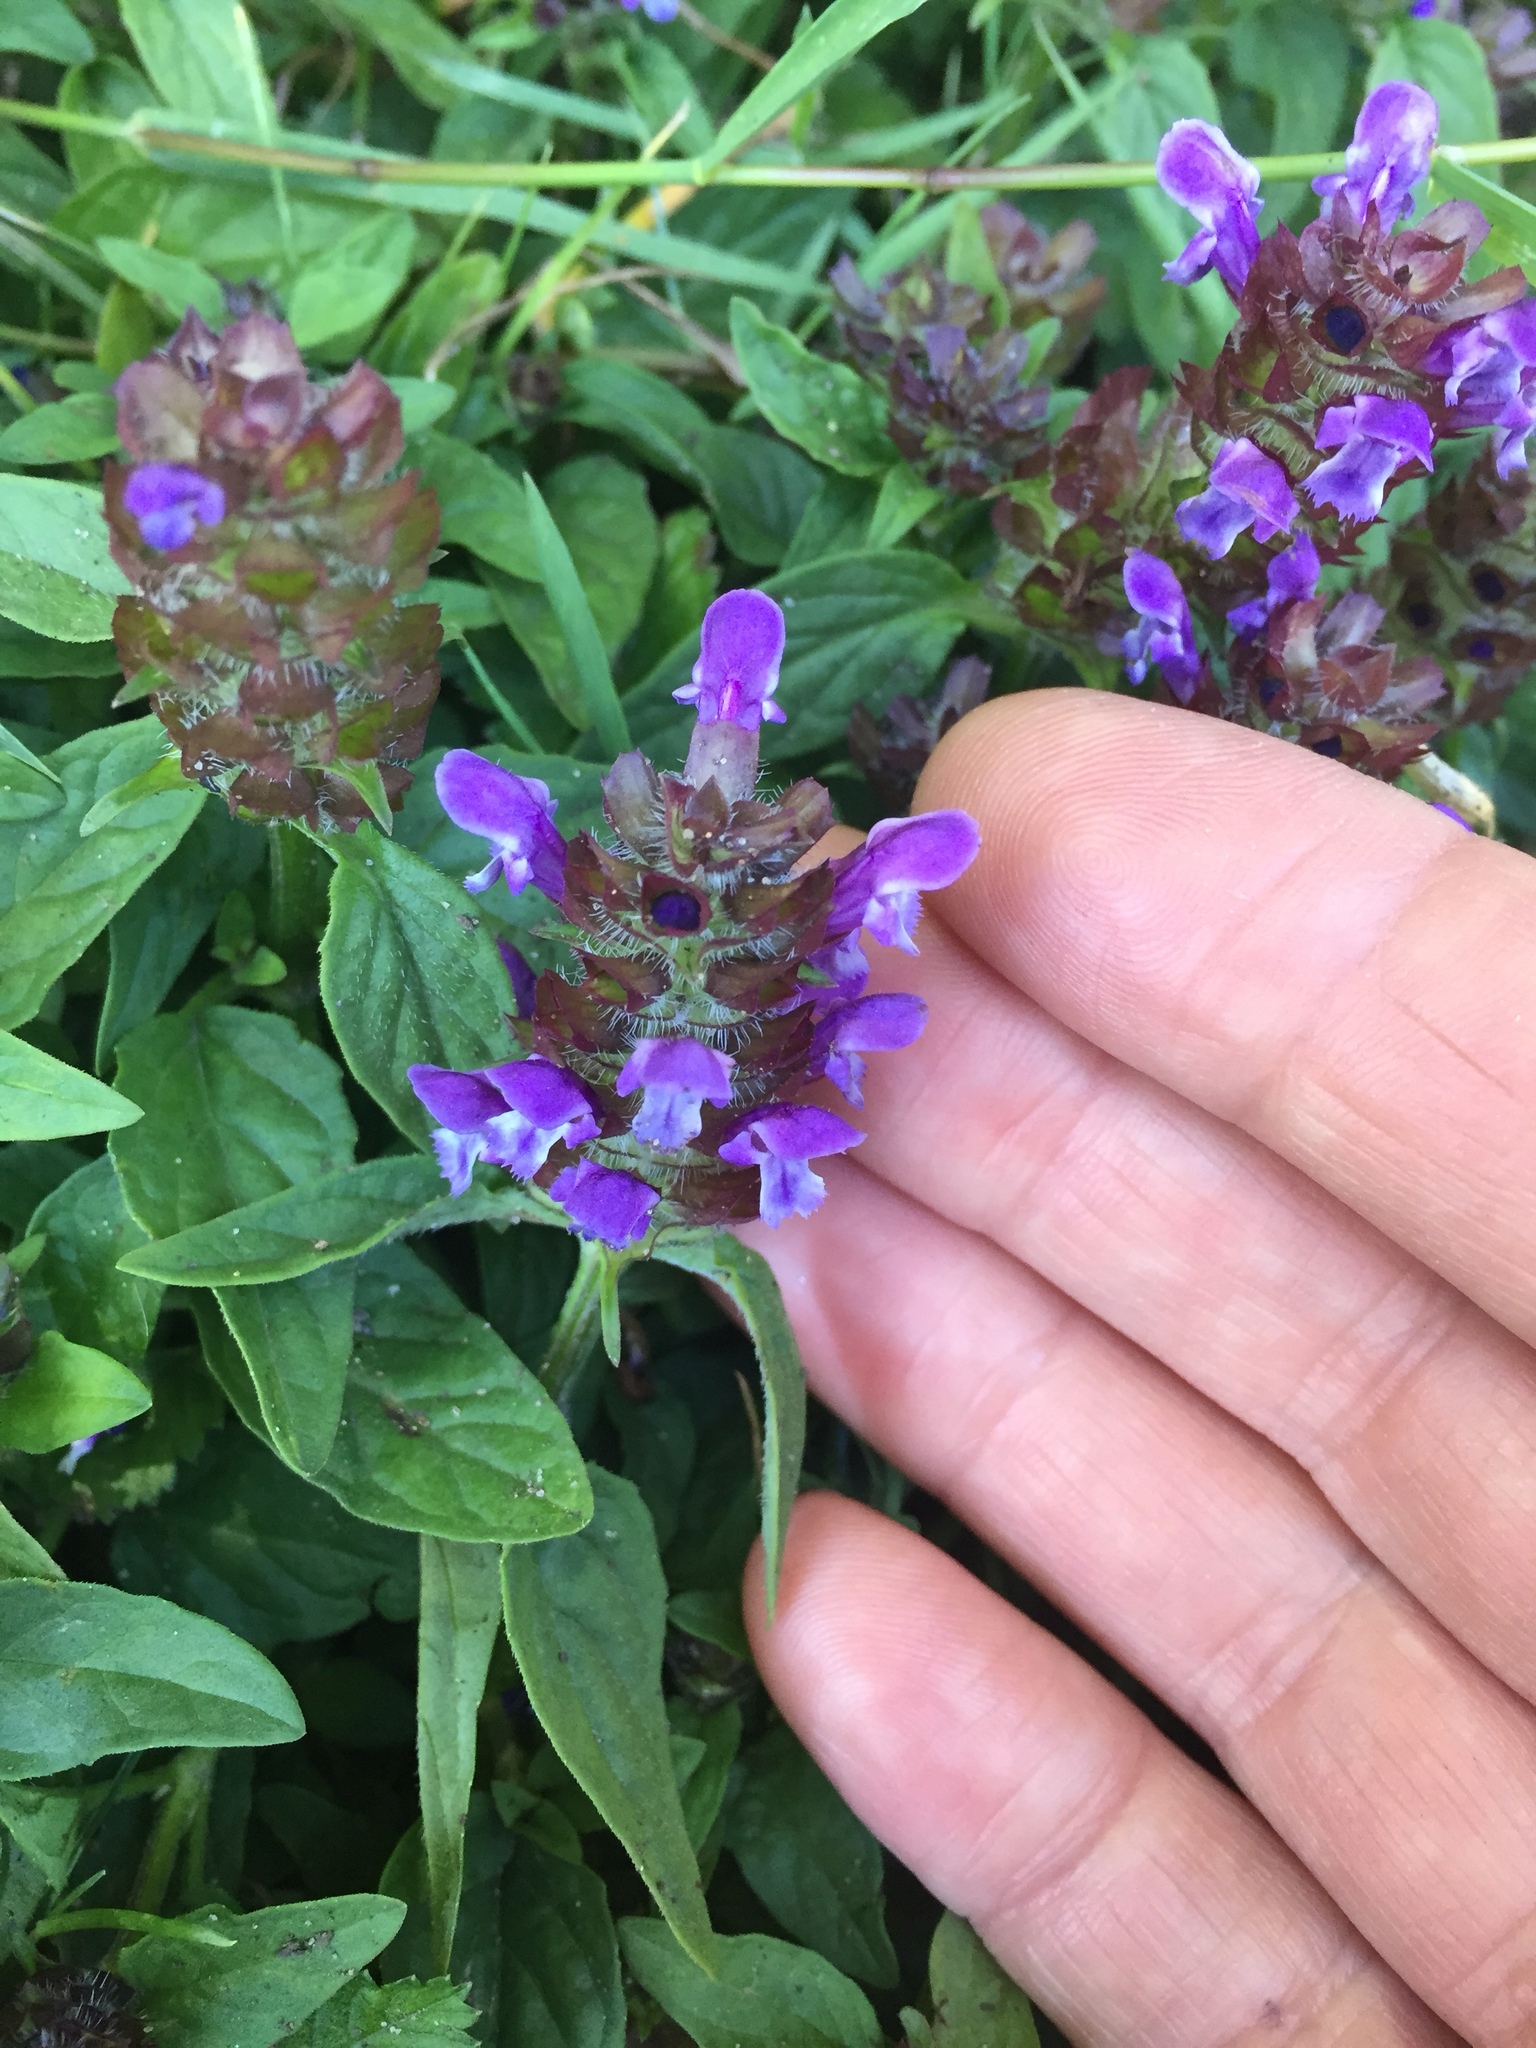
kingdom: Plantae
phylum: Tracheophyta
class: Magnoliopsida
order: Lamiales
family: Lamiaceae
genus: Prunella
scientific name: Prunella vulgaris
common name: Heal-all
